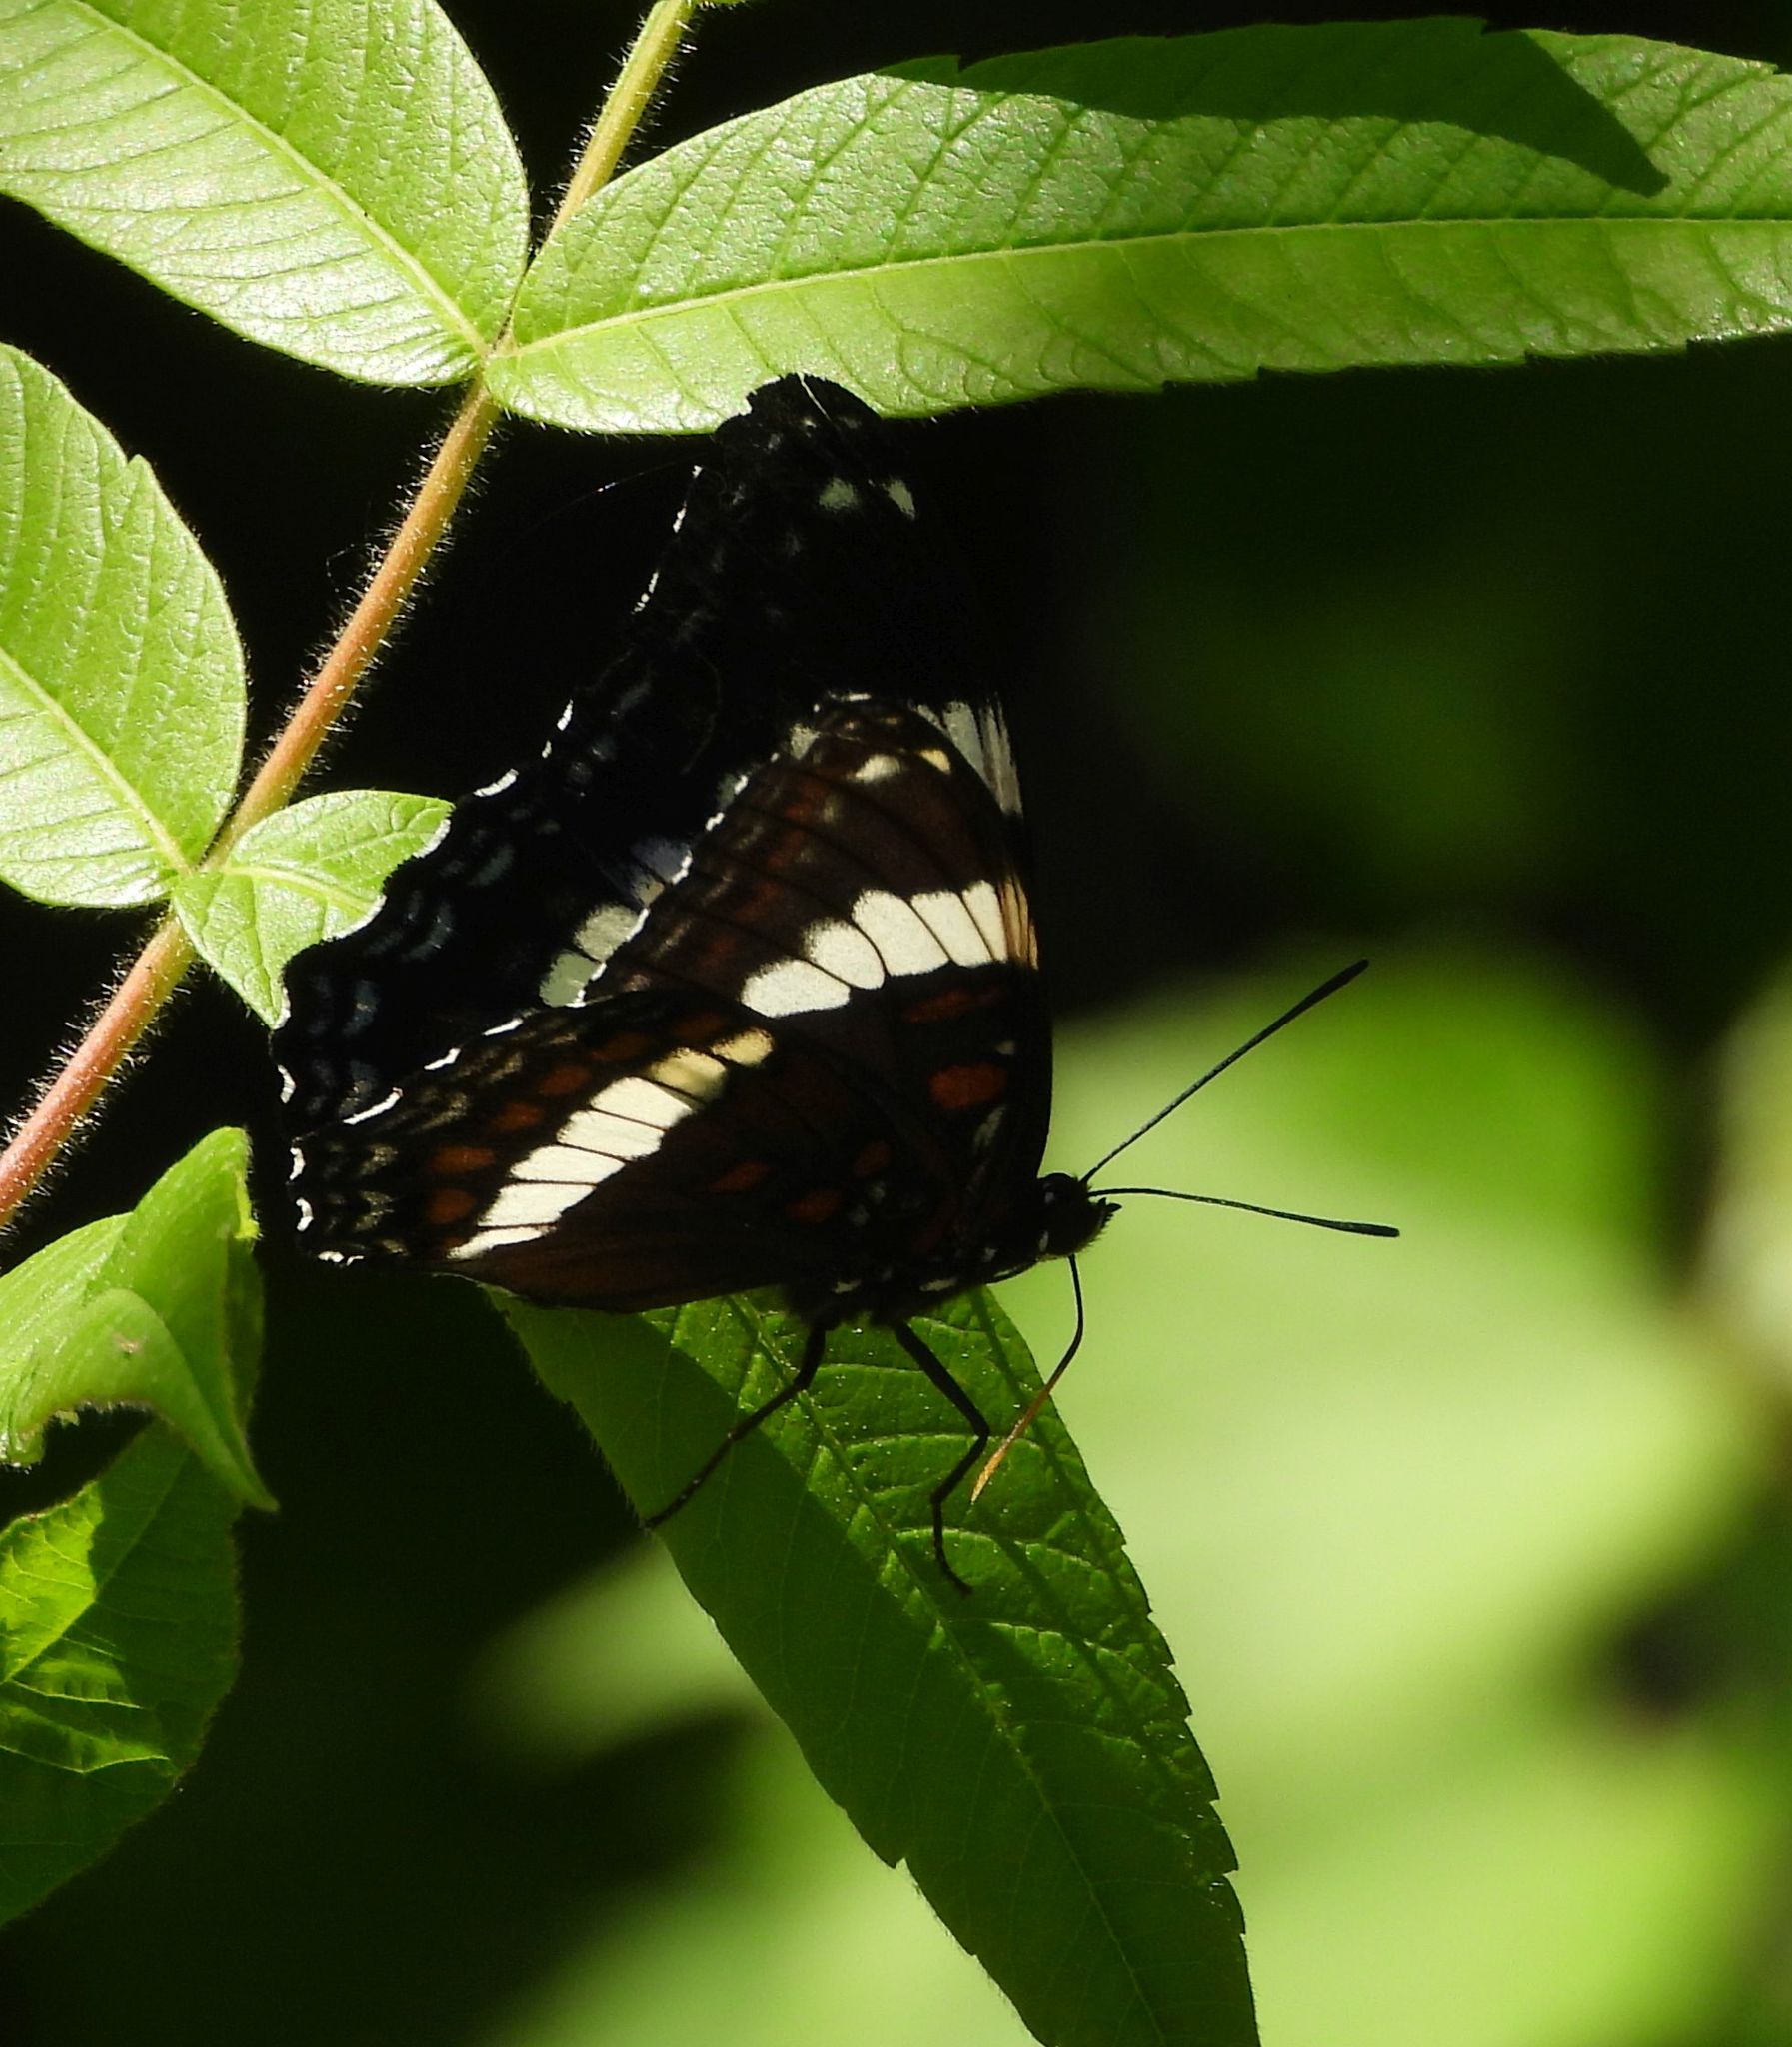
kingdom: Animalia
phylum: Arthropoda
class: Insecta
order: Lepidoptera
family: Nymphalidae
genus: Limenitis
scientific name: Limenitis arthemis
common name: Red-spotted admiral
